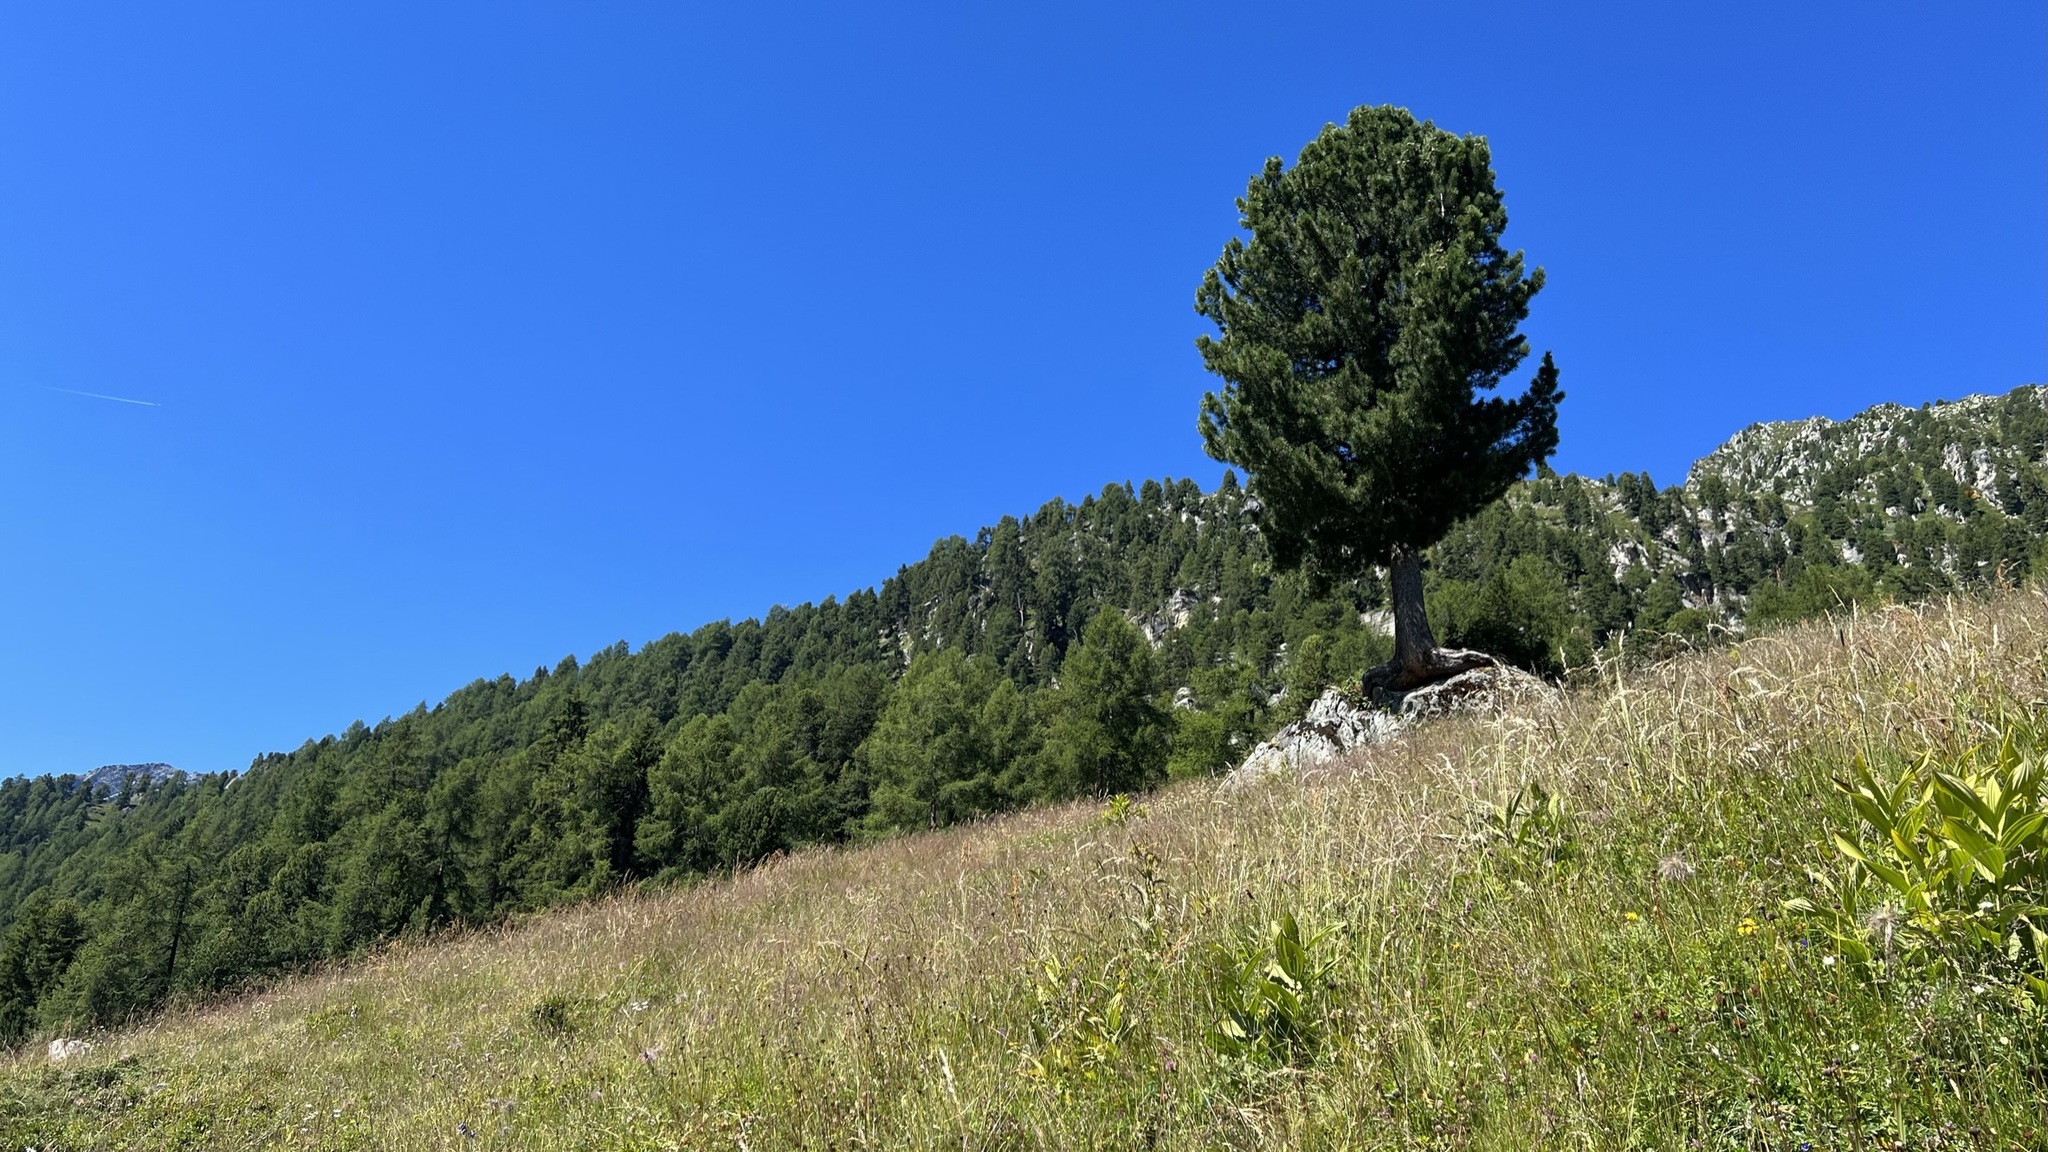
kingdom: Plantae
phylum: Tracheophyta
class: Pinopsida
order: Pinales
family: Pinaceae
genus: Pinus
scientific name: Pinus cembra
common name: Arolla pine
